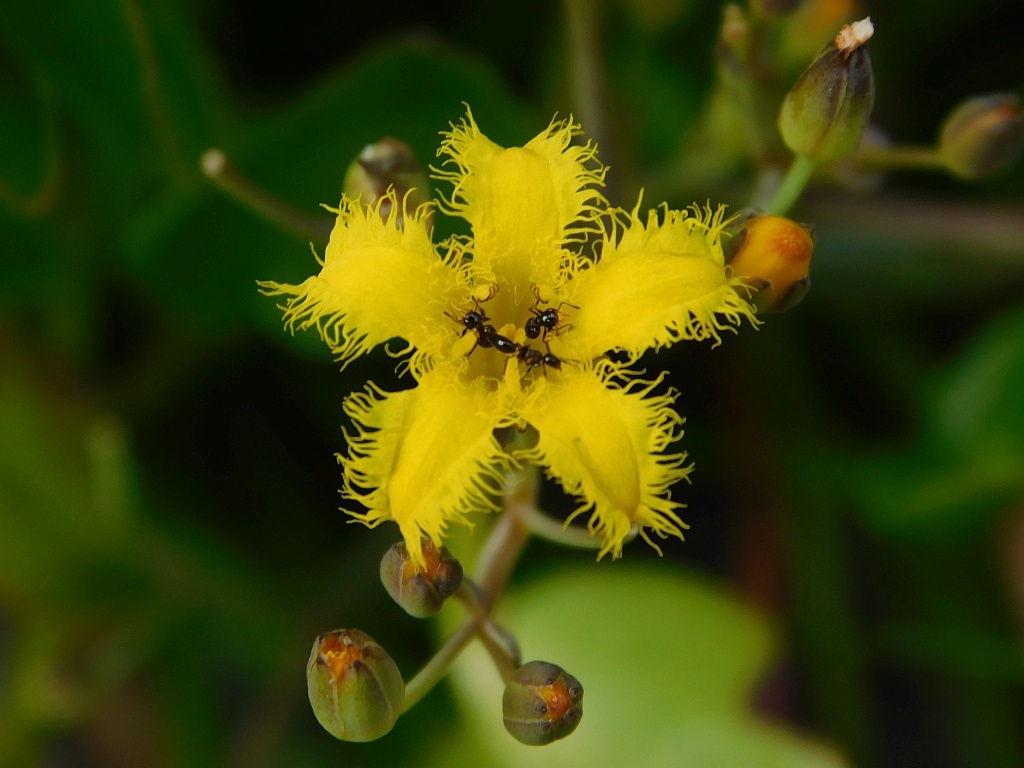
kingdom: Plantae
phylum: Tracheophyta
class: Magnoliopsida
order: Asterales
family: Menyanthaceae
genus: Villarsia
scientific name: Villarsia manningiana
